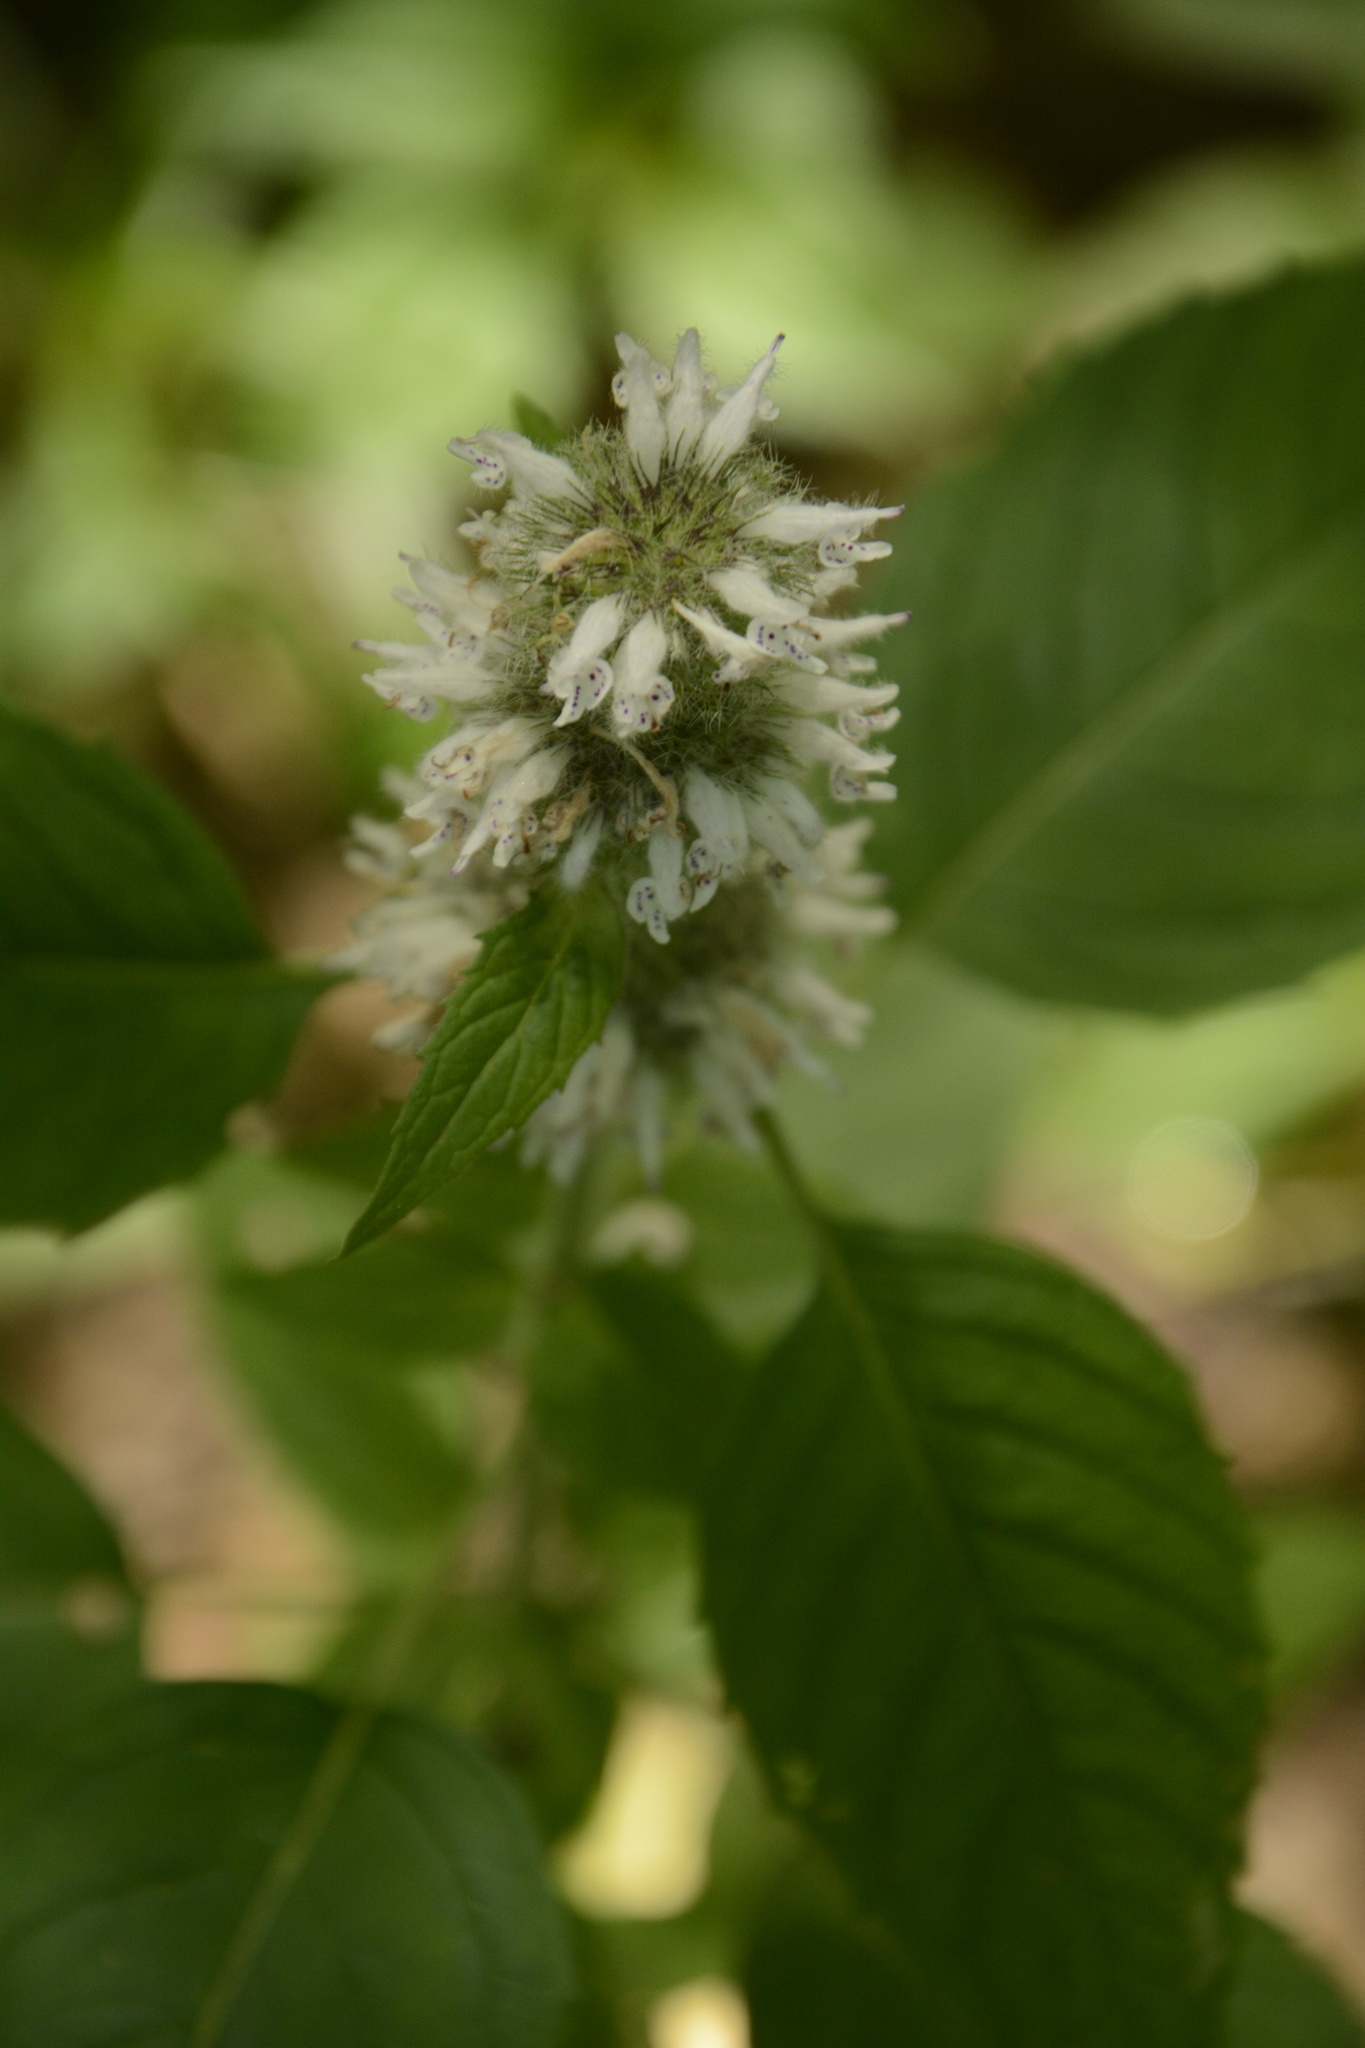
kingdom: Plantae
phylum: Tracheophyta
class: Magnoliopsida
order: Lamiales
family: Lamiaceae
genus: Blephilia
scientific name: Blephilia hirsuta
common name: Hairy blephilia
